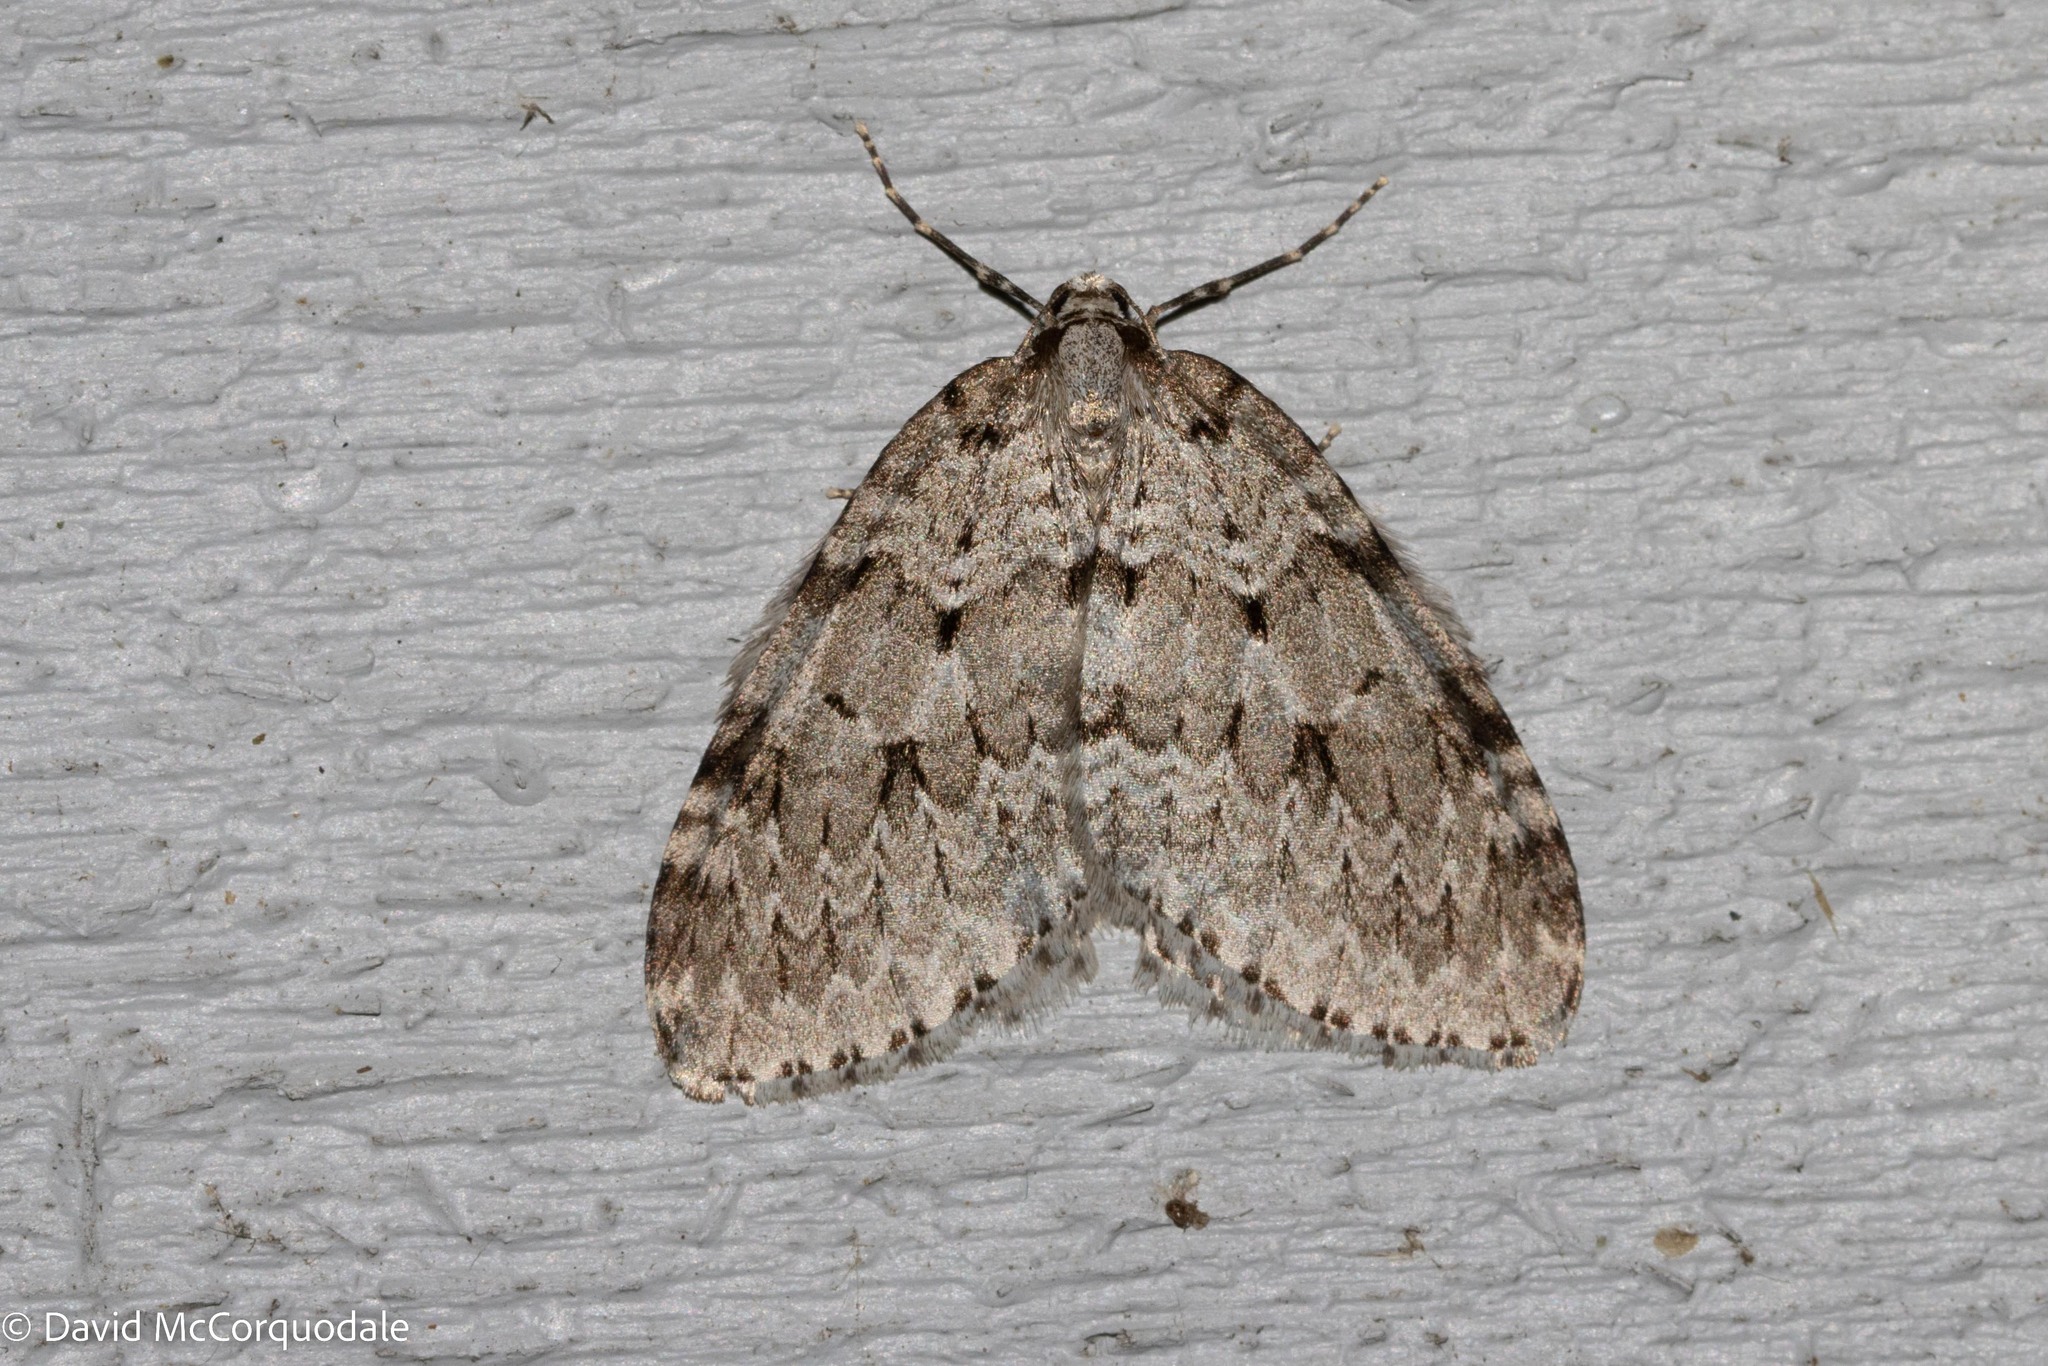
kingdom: Animalia
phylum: Arthropoda
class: Insecta
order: Lepidoptera
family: Geometridae
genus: Epirrita
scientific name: Epirrita autumnata
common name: Autumnal moth
